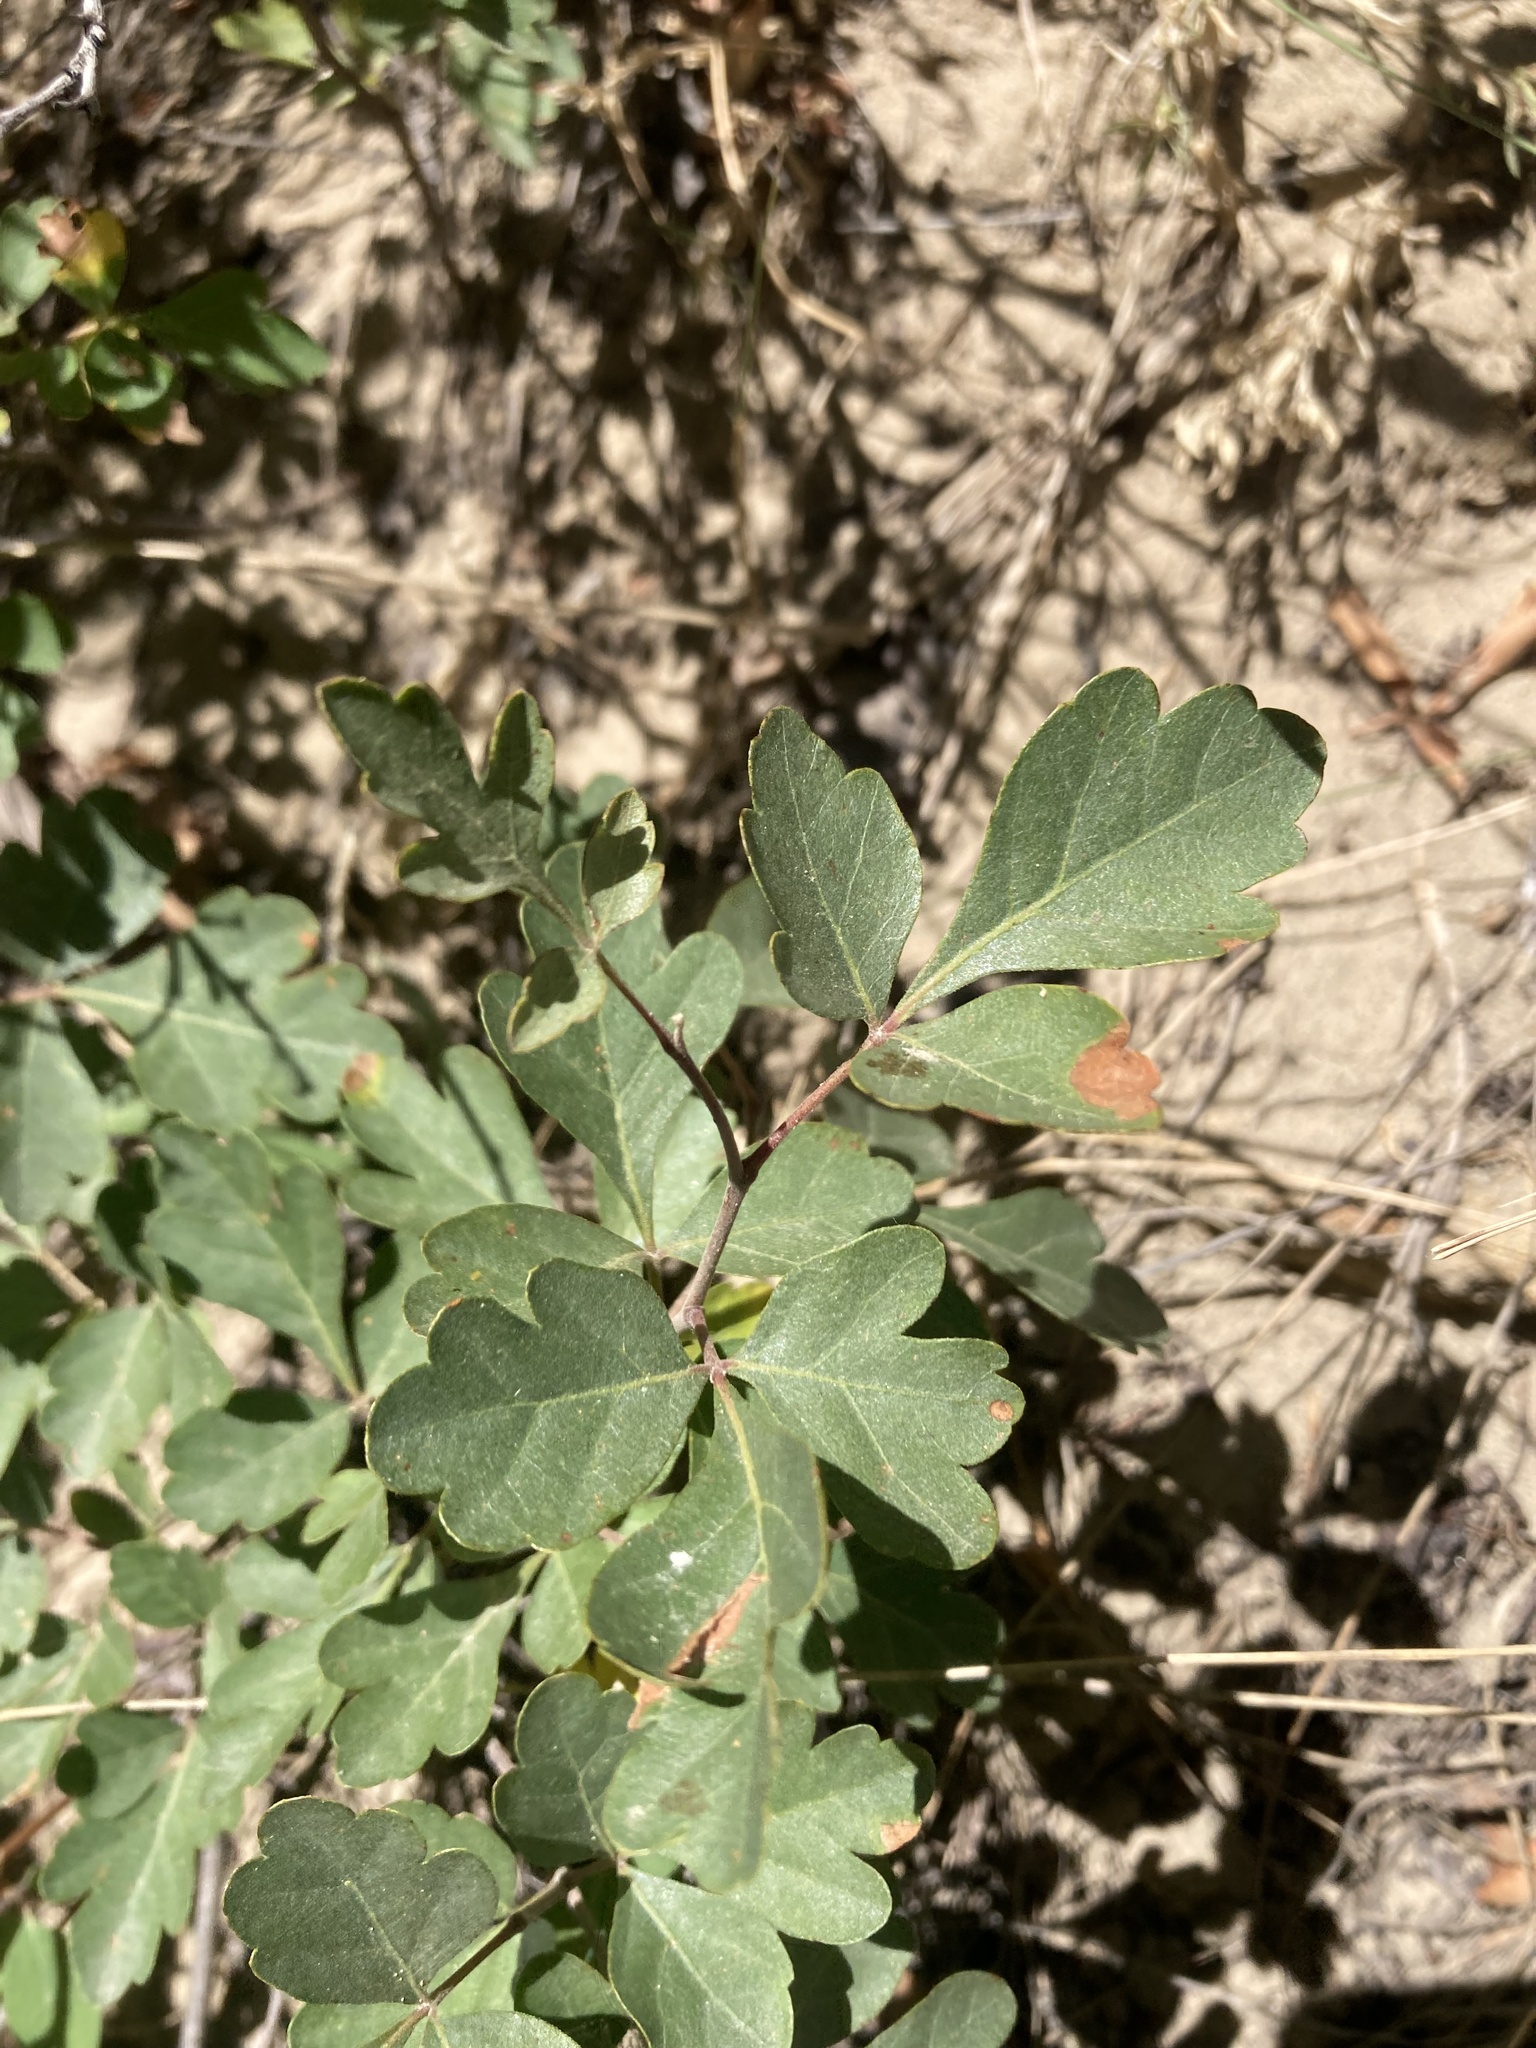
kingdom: Plantae
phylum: Tracheophyta
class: Magnoliopsida
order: Sapindales
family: Anacardiaceae
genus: Rhus
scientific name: Rhus trilobata
